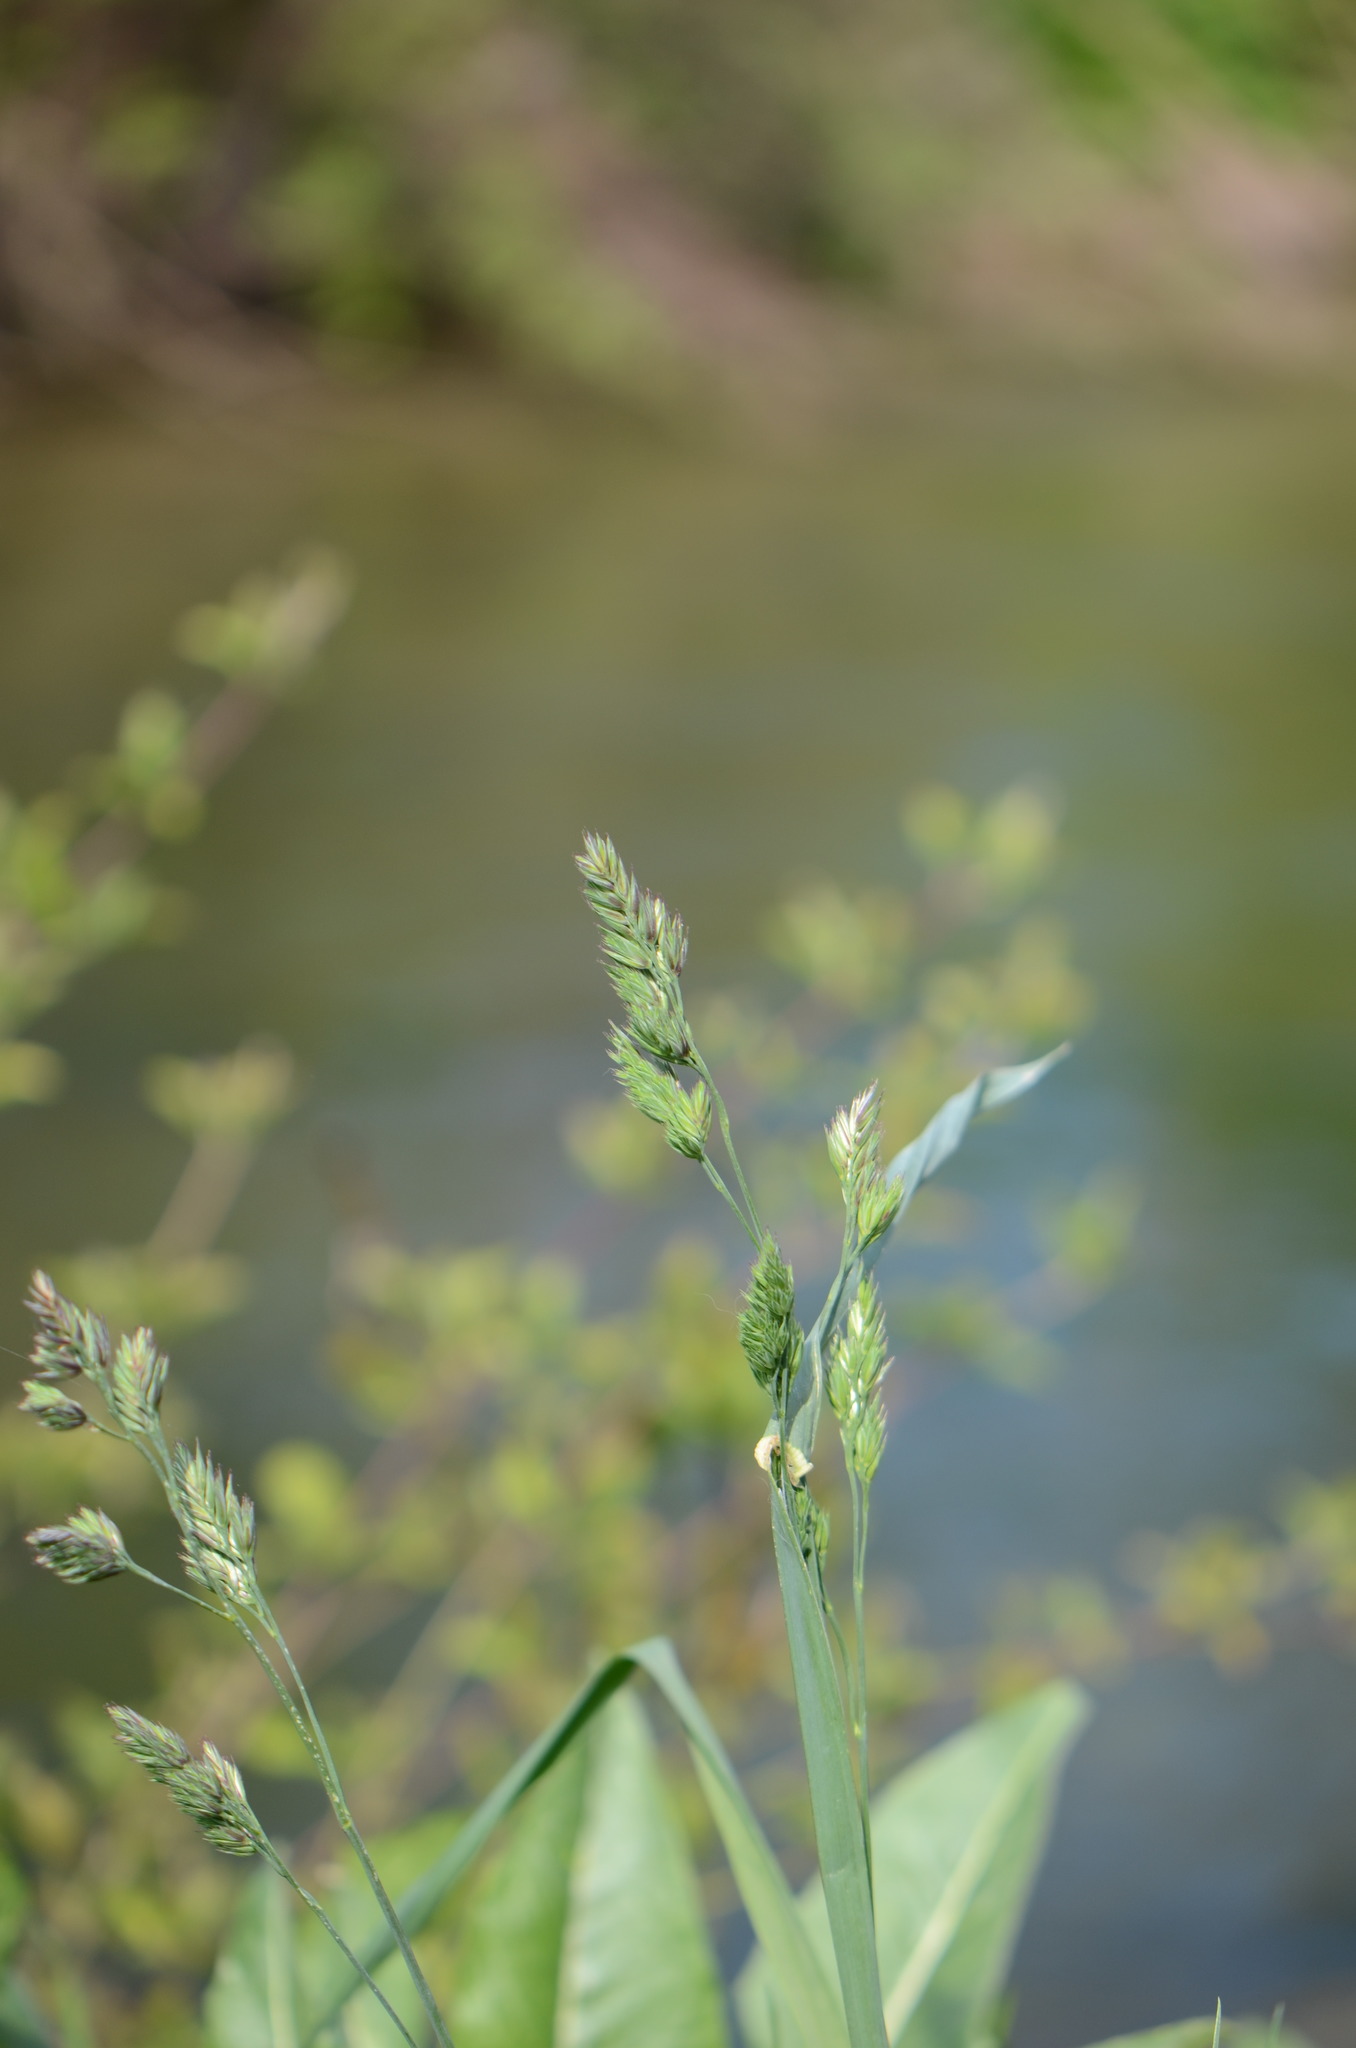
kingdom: Plantae
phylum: Tracheophyta
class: Liliopsida
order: Poales
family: Poaceae
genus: Dactylis
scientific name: Dactylis glomerata
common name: Orchardgrass
